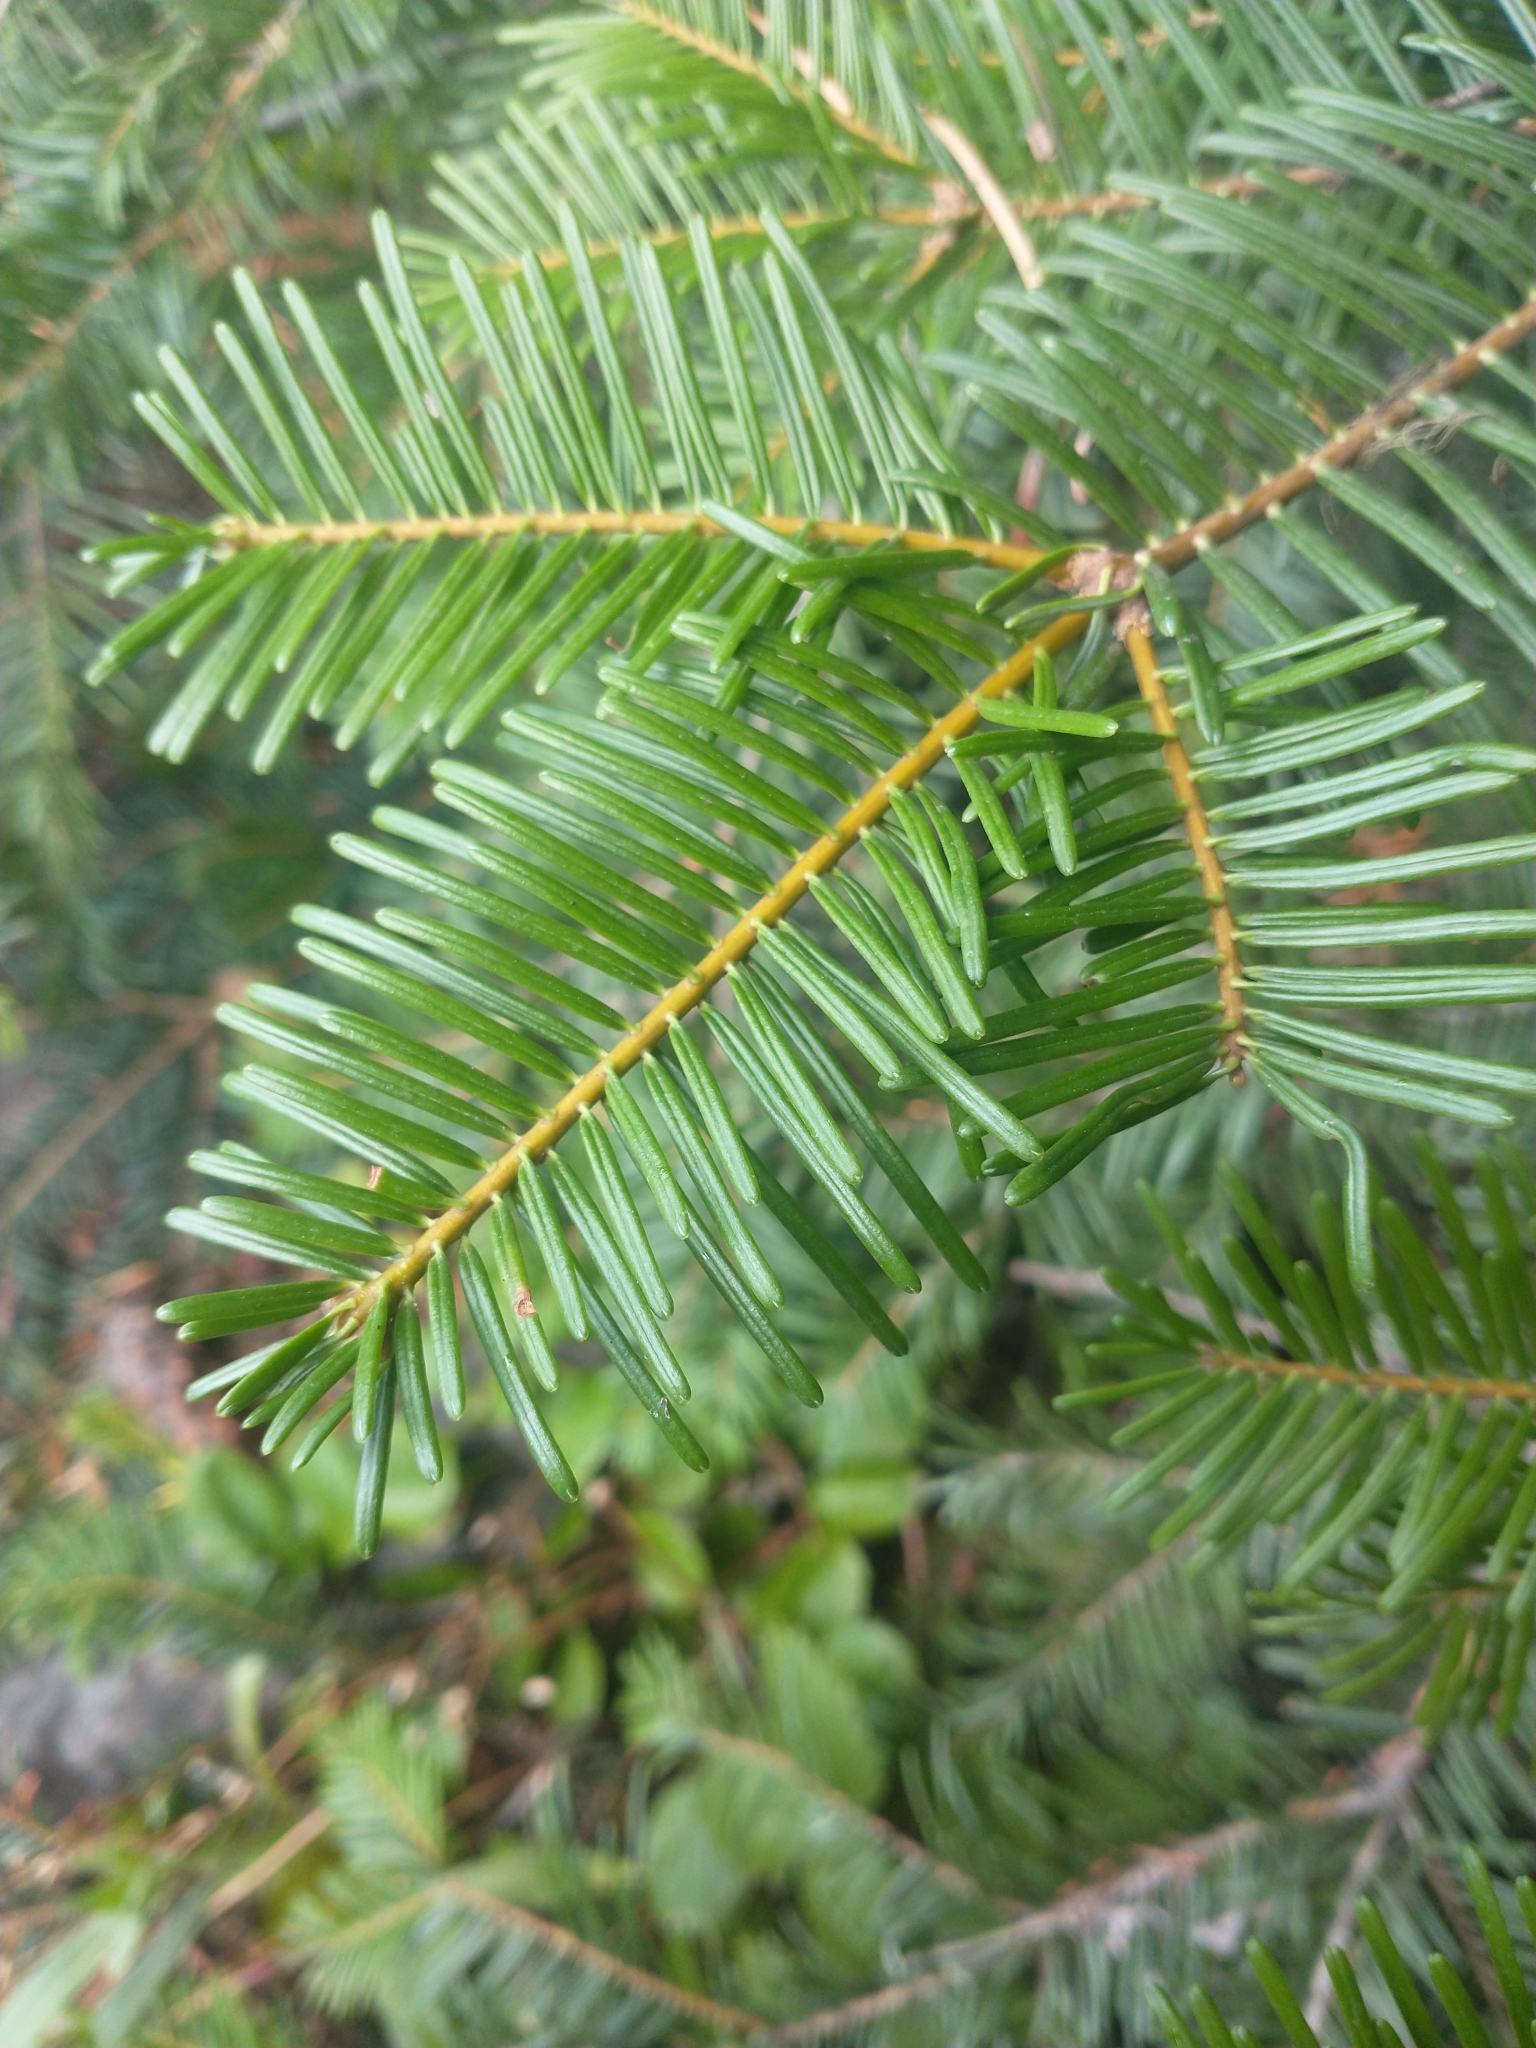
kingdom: Plantae
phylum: Tracheophyta
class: Pinopsida
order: Pinales
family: Pinaceae
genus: Abies
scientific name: Abies concolor
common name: Colorado fir
